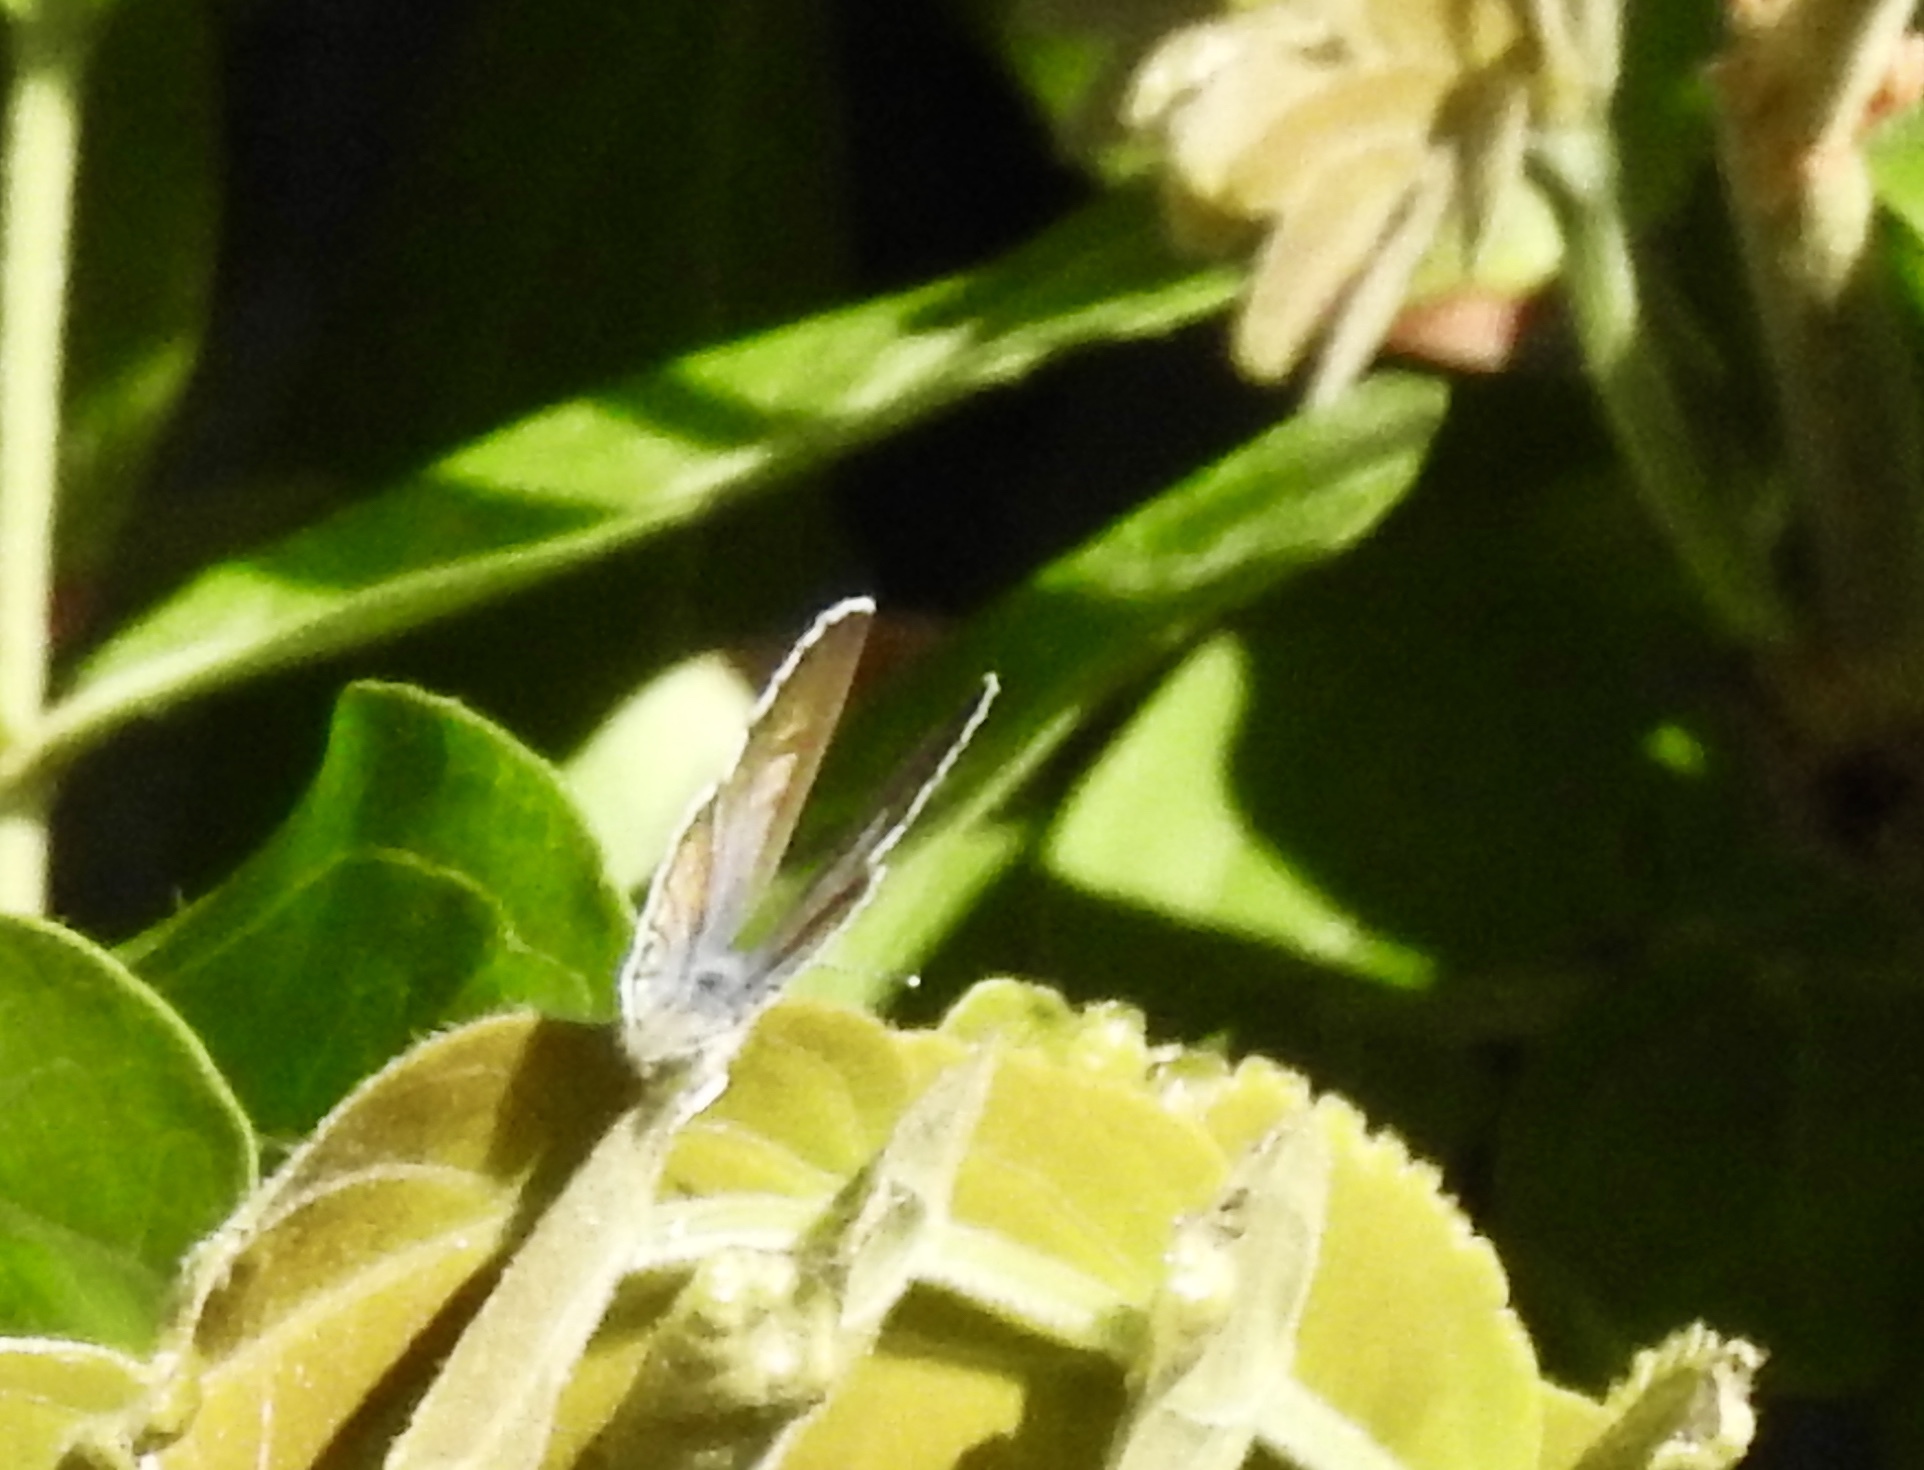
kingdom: Animalia
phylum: Arthropoda
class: Insecta
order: Lepidoptera
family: Lycaenidae
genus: Leptotes
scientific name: Leptotes marina
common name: Marine blue
